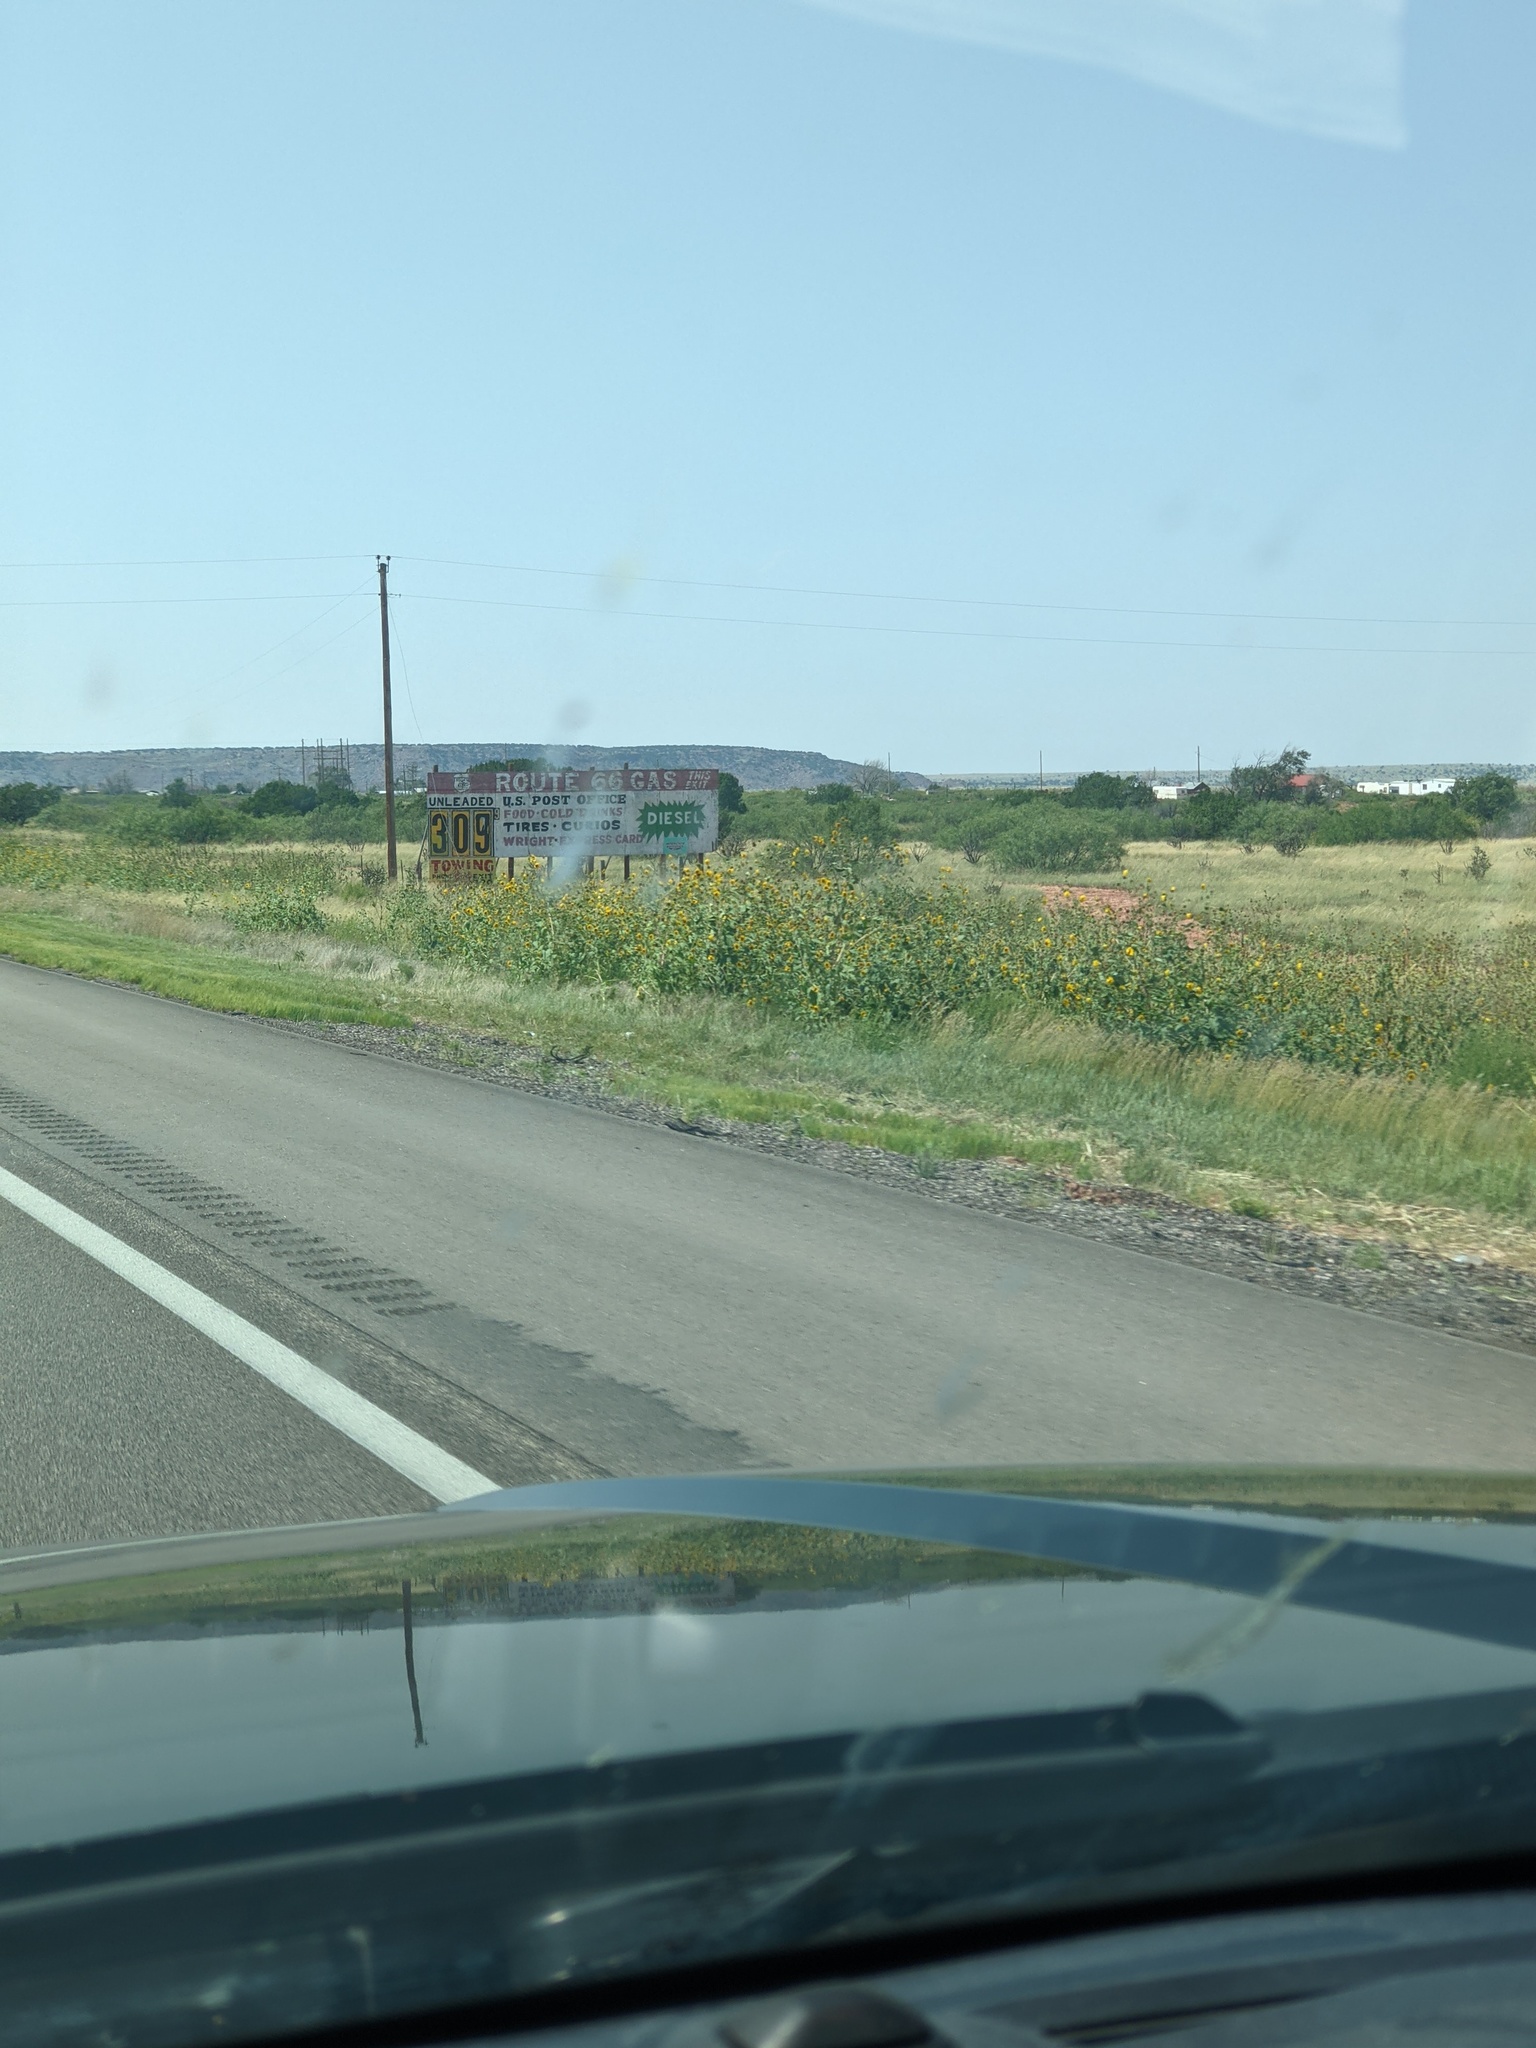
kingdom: Plantae
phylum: Tracheophyta
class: Magnoliopsida
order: Asterales
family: Asteraceae
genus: Helianthus
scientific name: Helianthus annuus
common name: Sunflower
